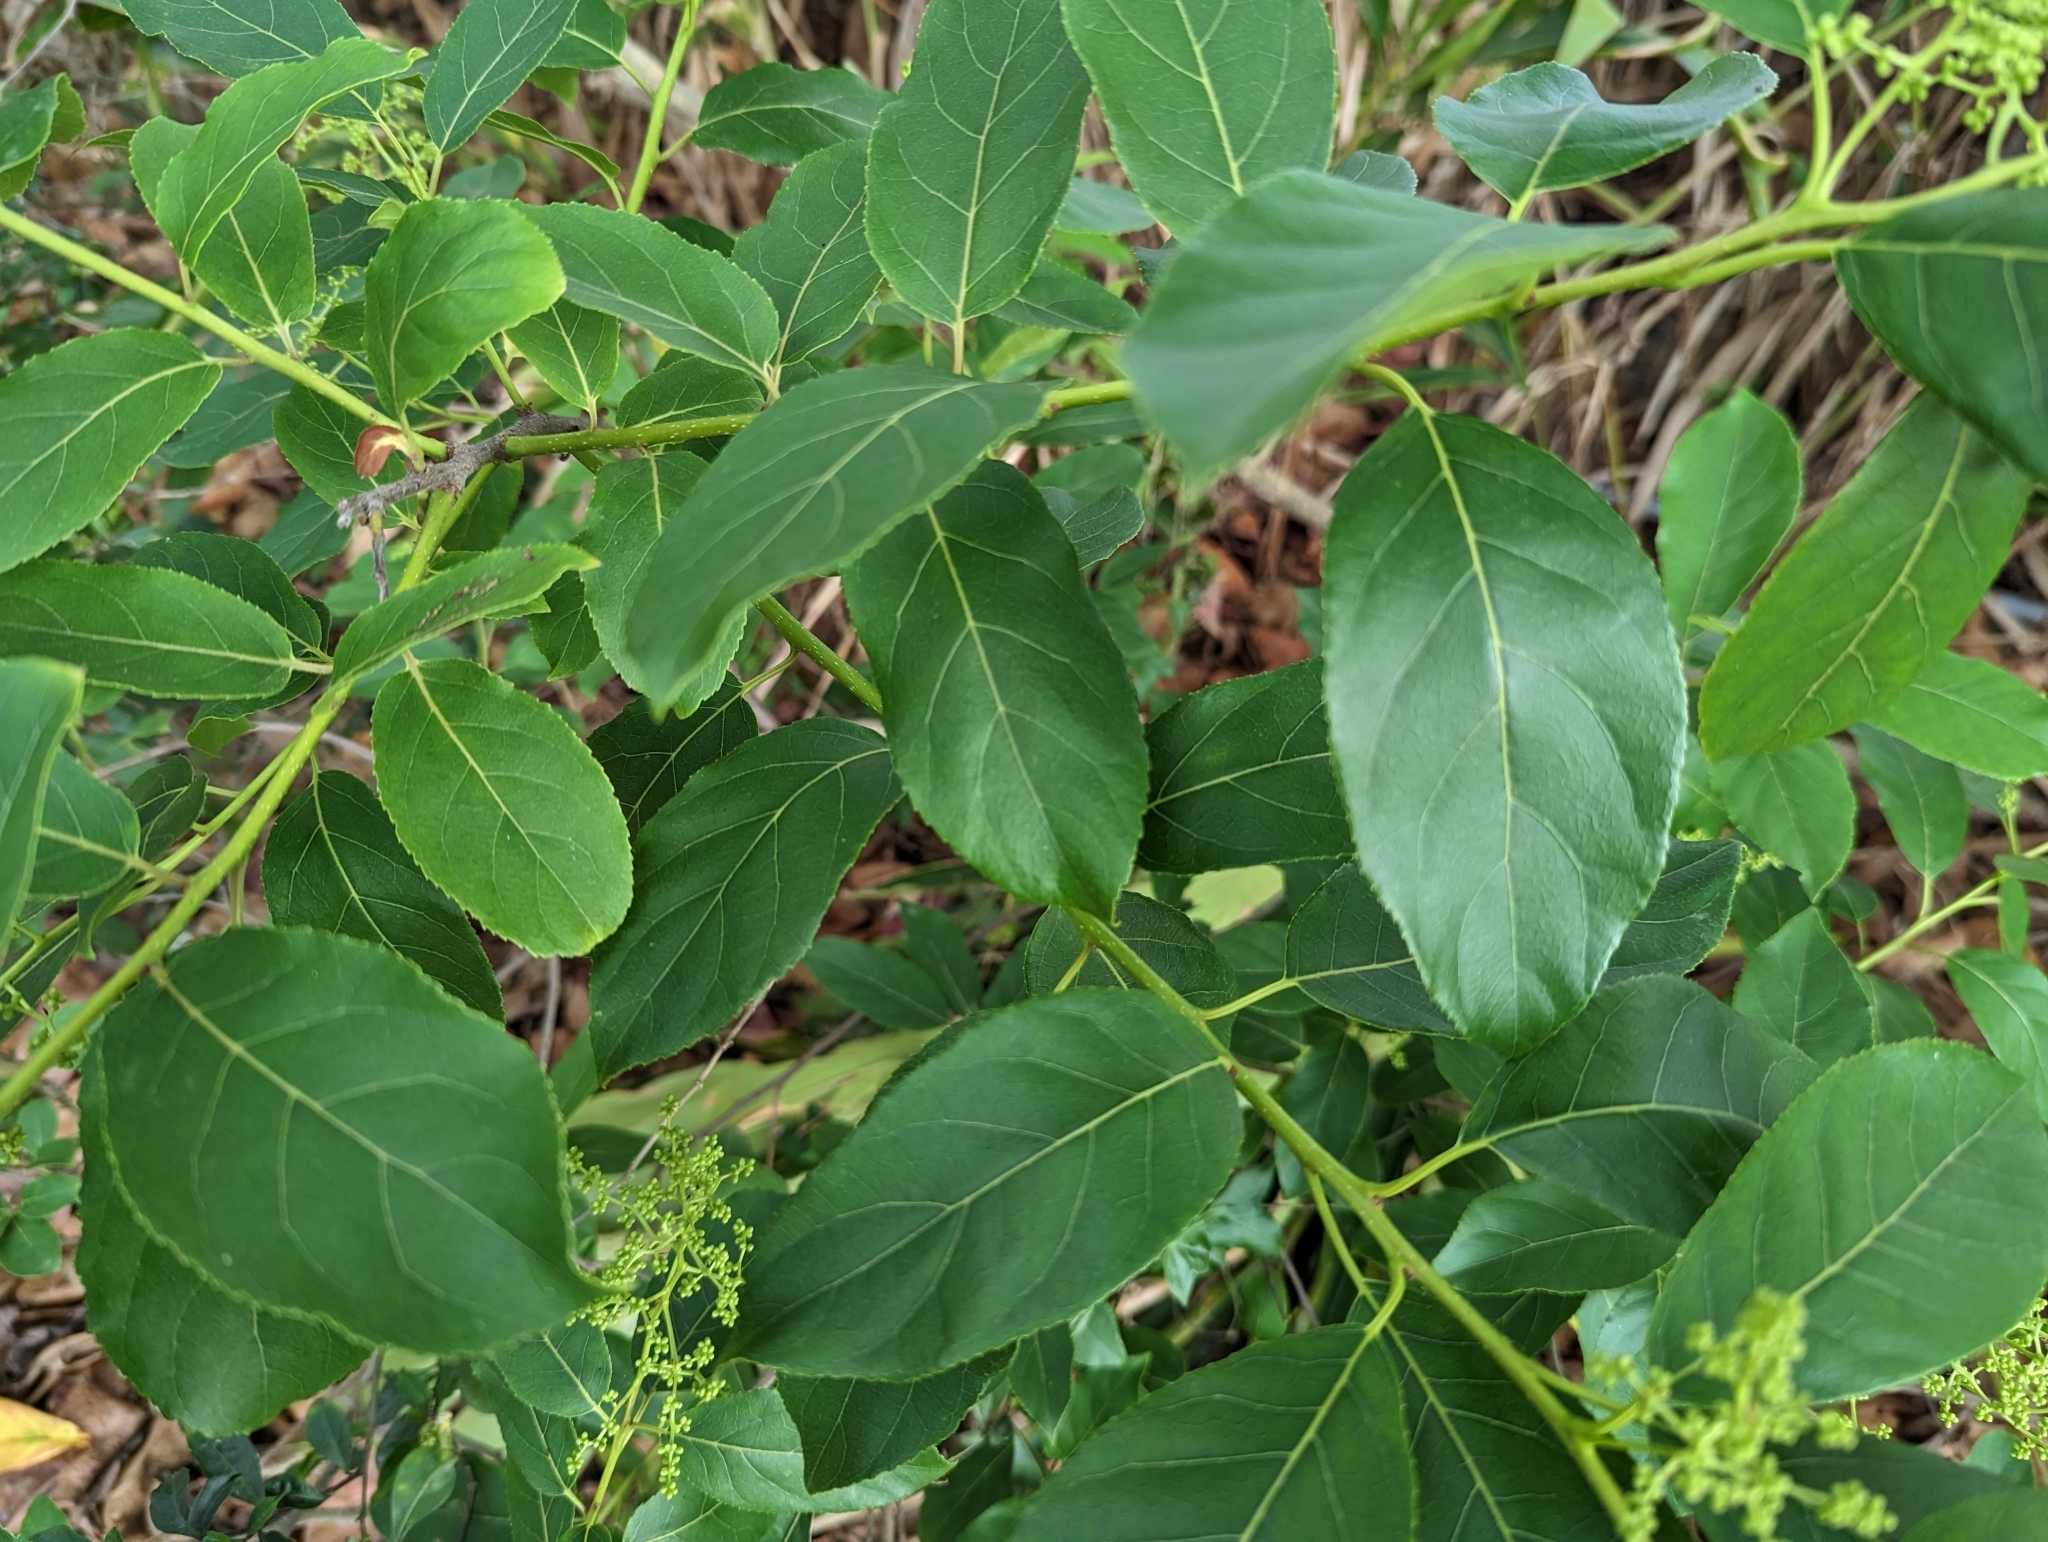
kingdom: Plantae
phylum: Tracheophyta
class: Magnoliopsida
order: Boraginales
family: Ehretiaceae
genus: Ehretia
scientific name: Ehretia acuminata
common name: Kodo wood
